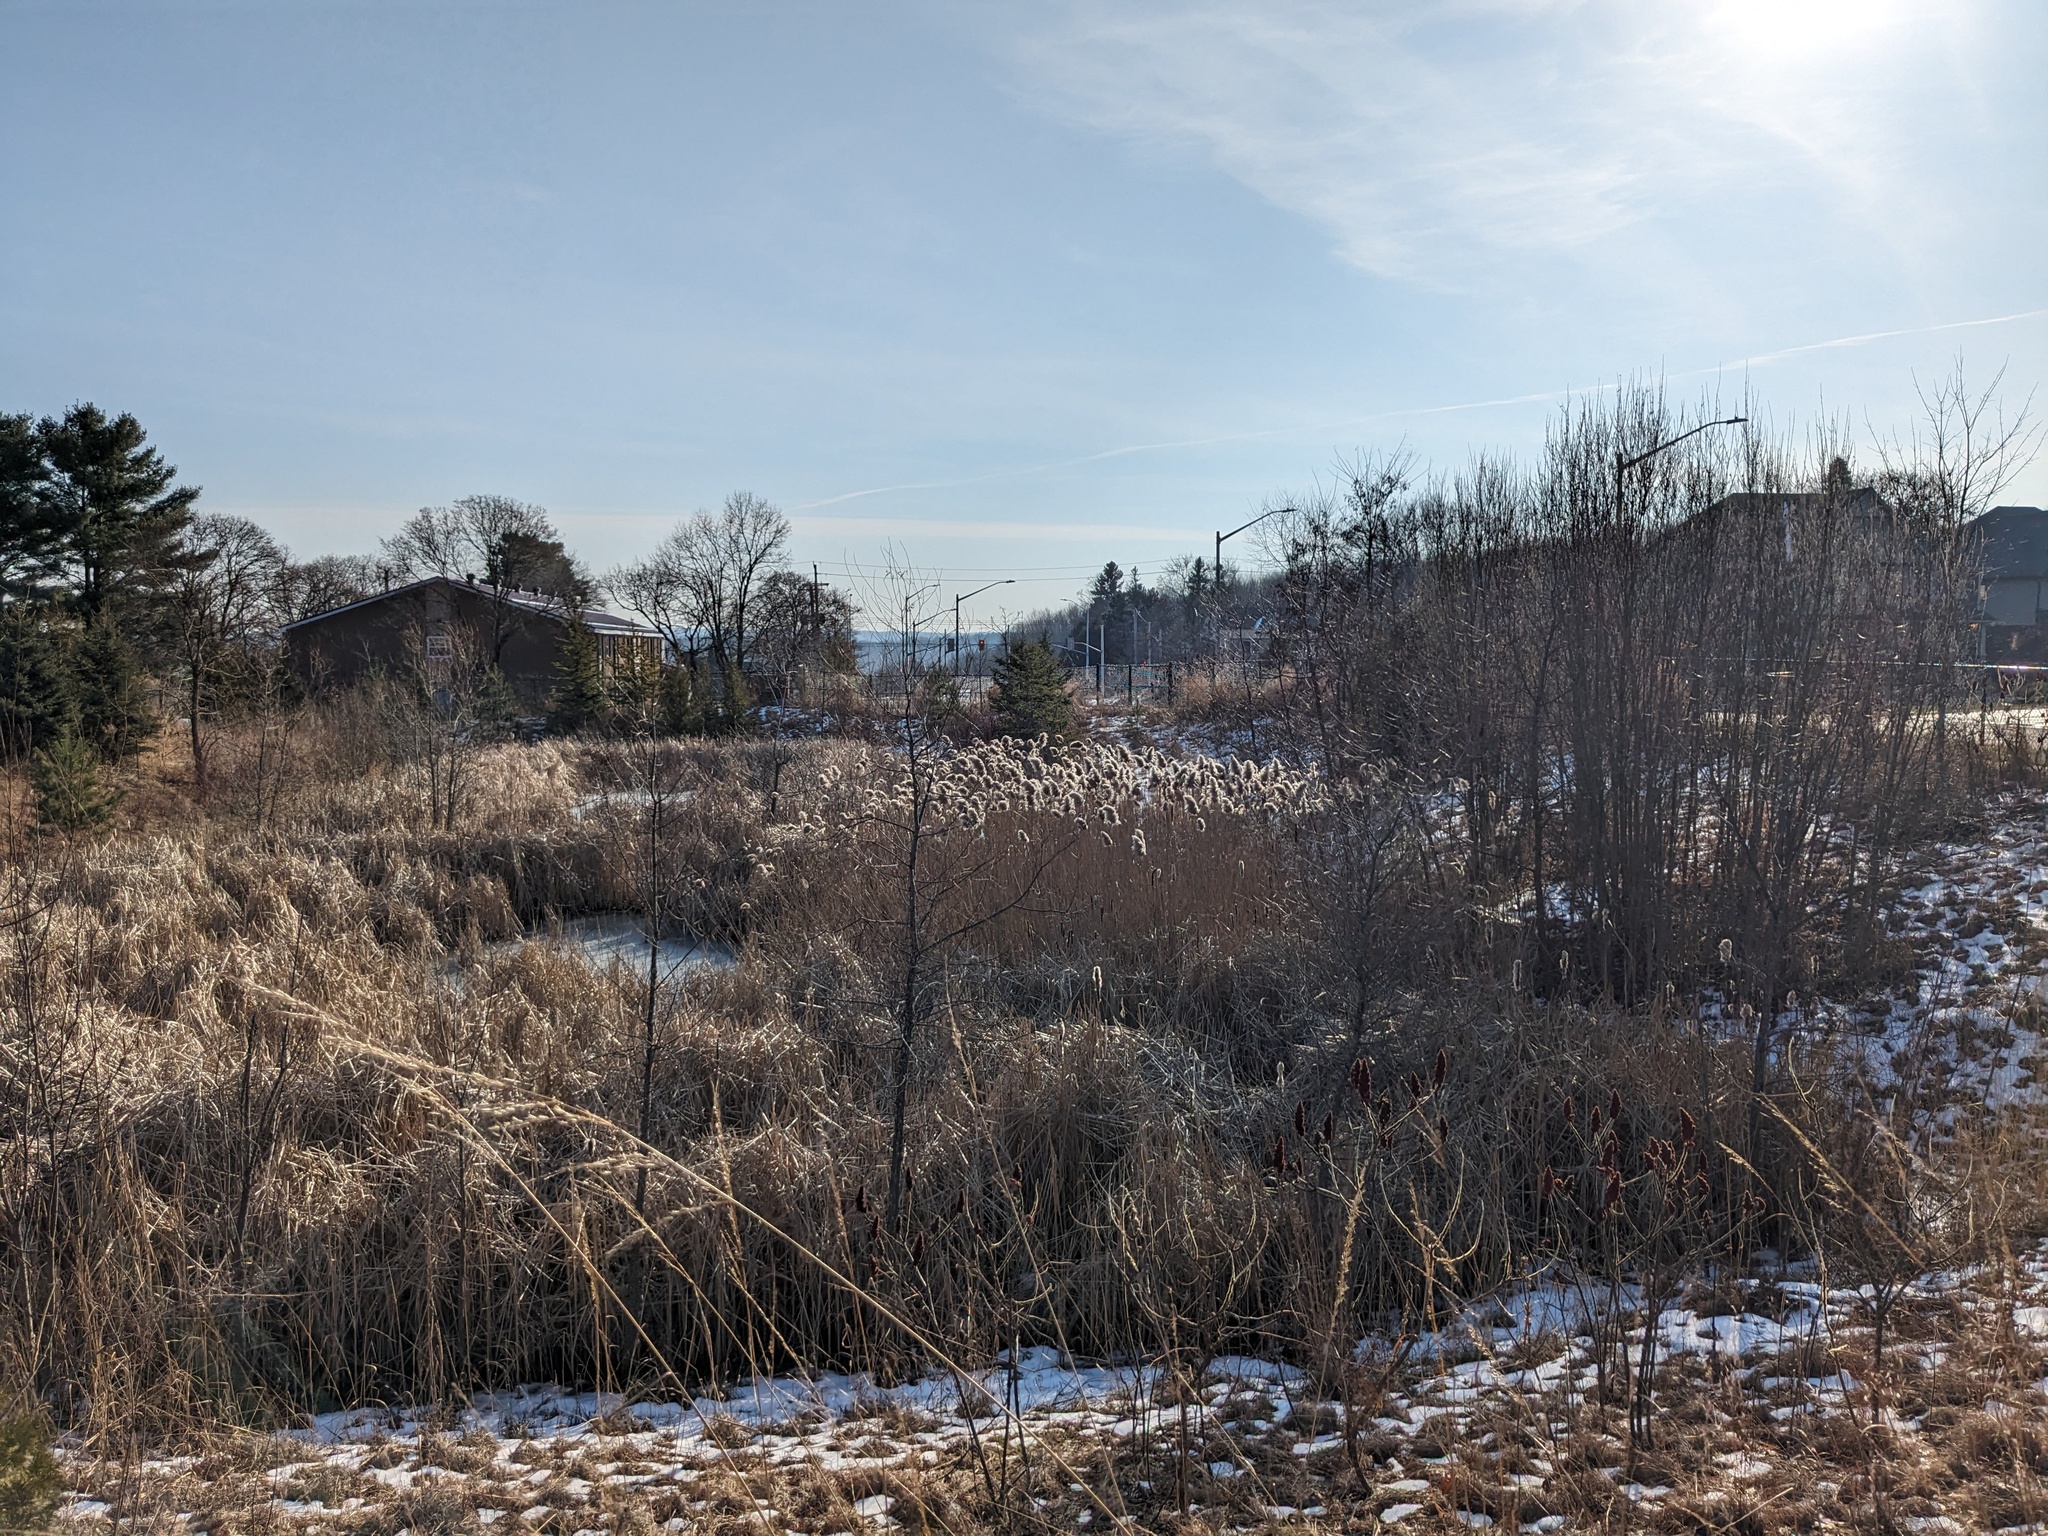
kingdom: Plantae
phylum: Tracheophyta
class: Liliopsida
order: Poales
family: Poaceae
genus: Phragmites
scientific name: Phragmites australis
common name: Common reed
